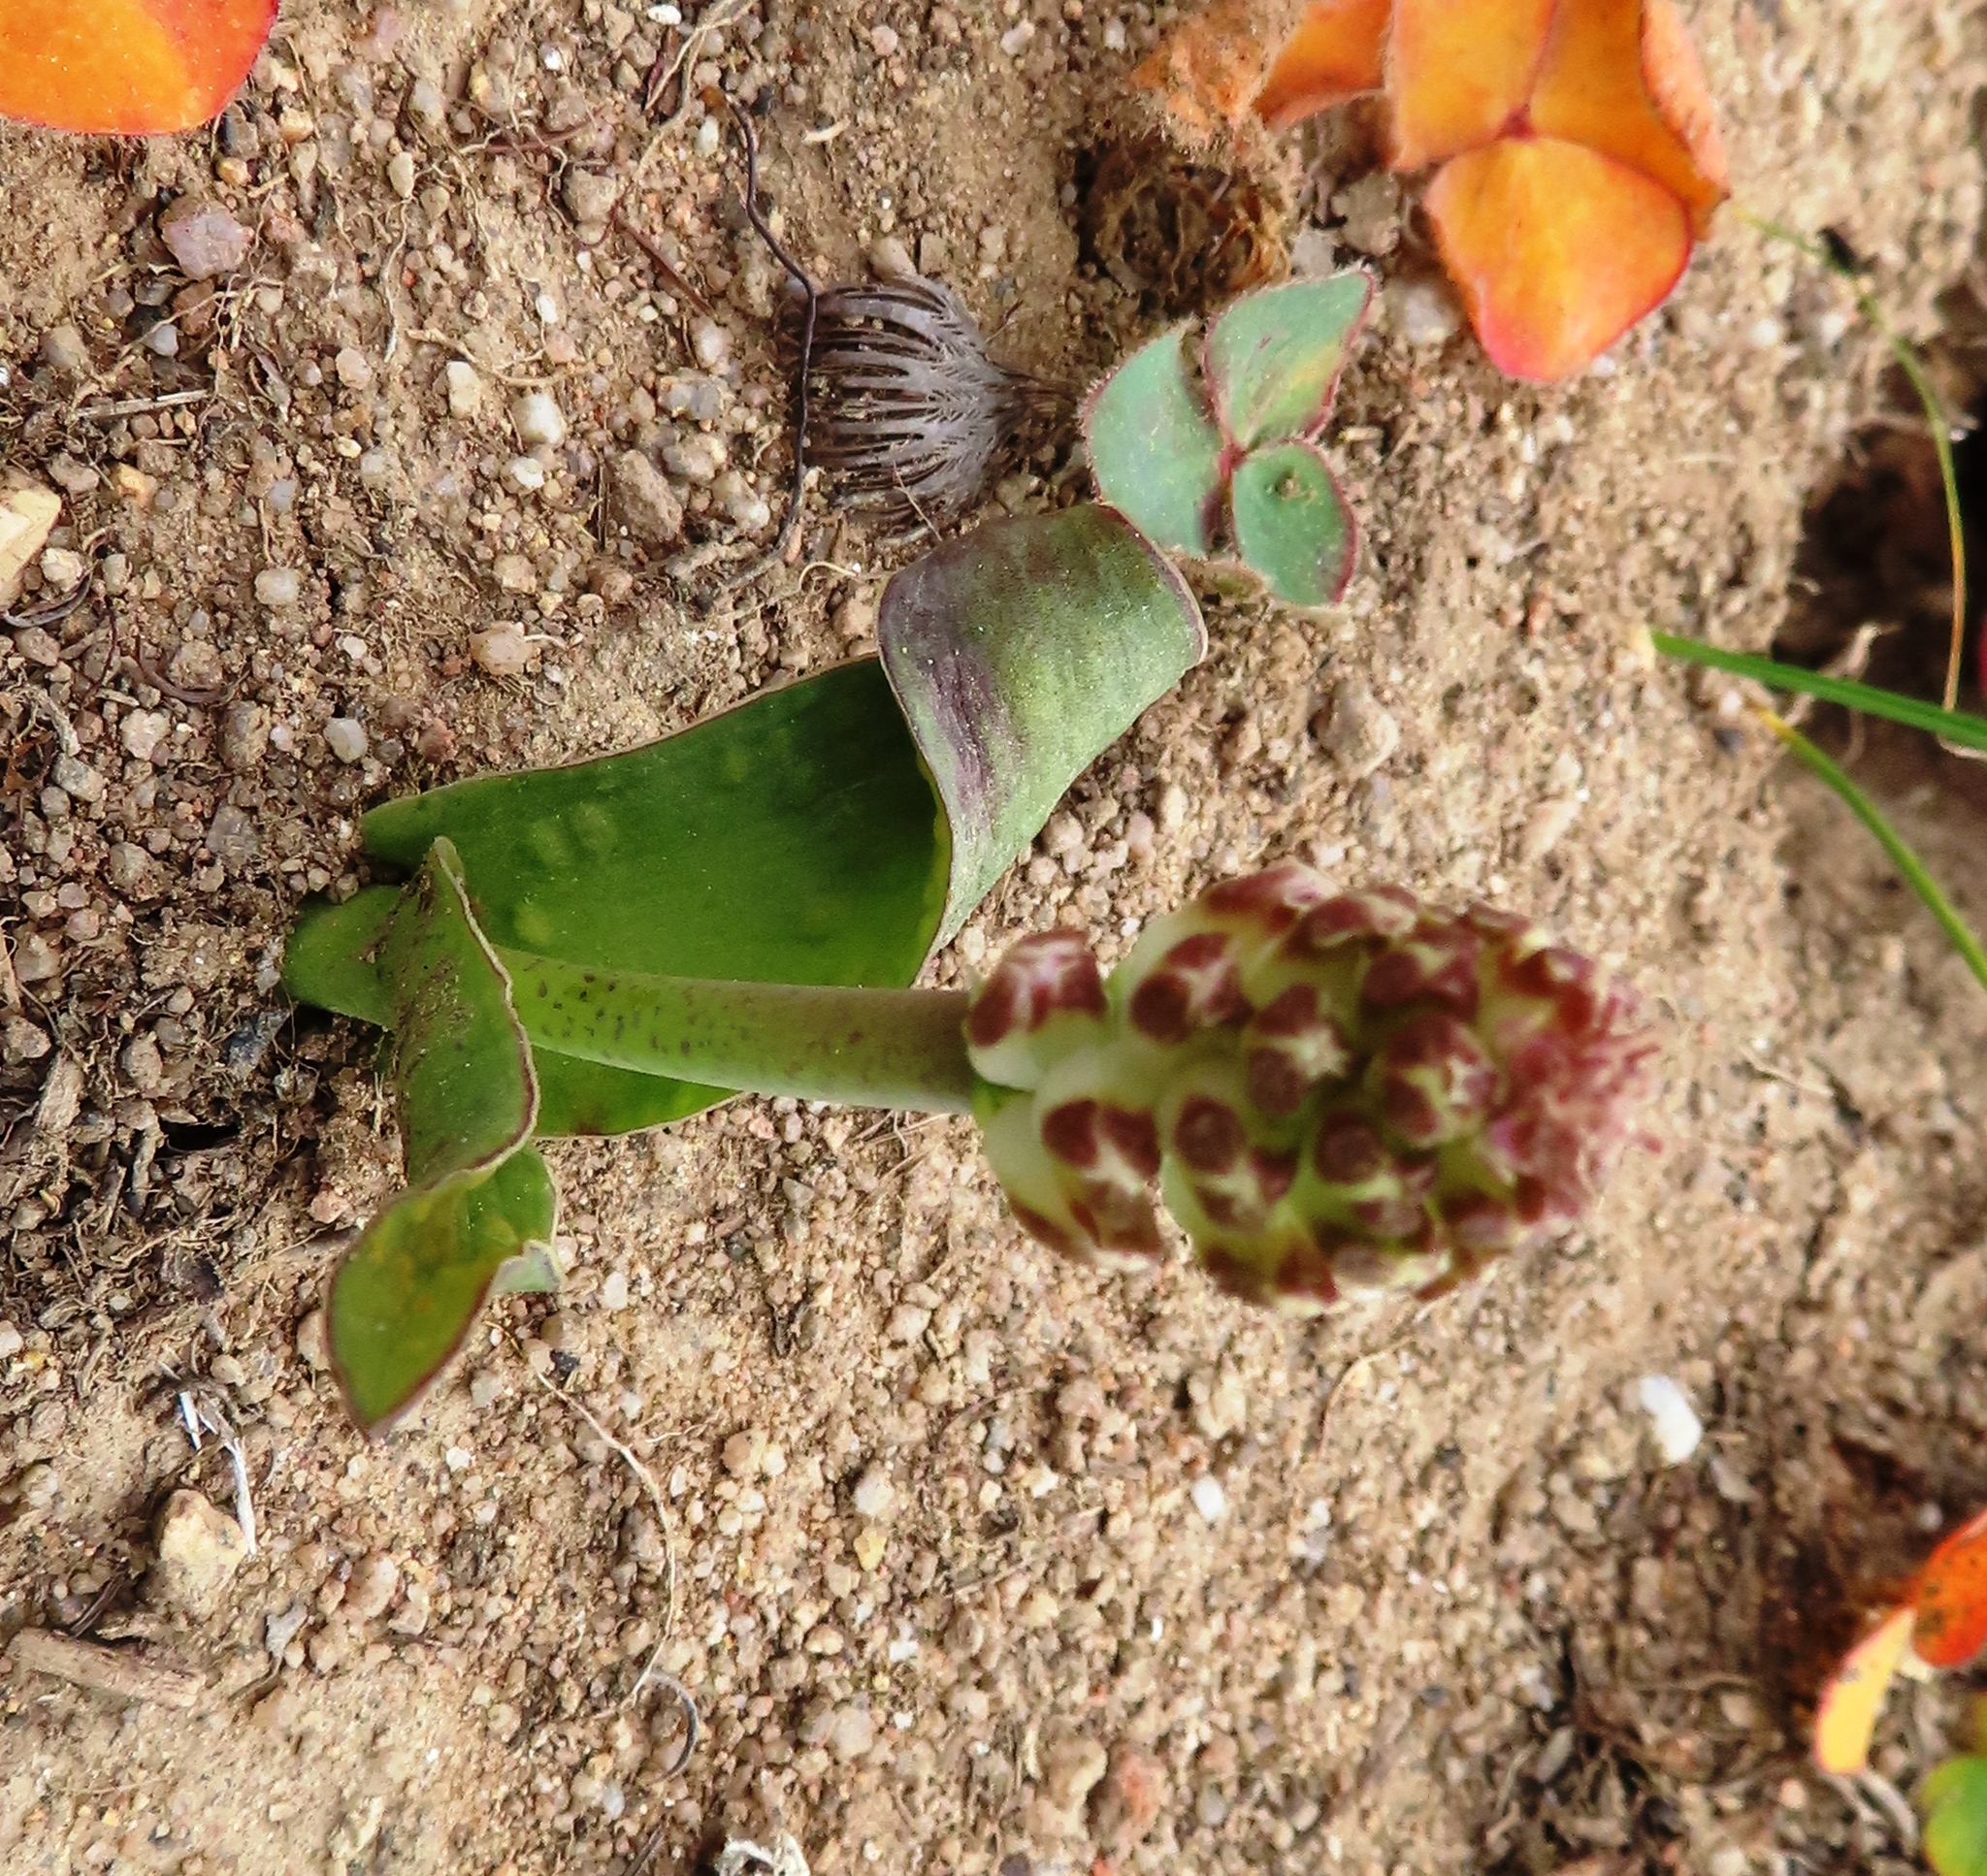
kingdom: Plantae
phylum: Tracheophyta
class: Liliopsida
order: Asparagales
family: Asparagaceae
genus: Lachenalia
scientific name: Lachenalia liliiflora
